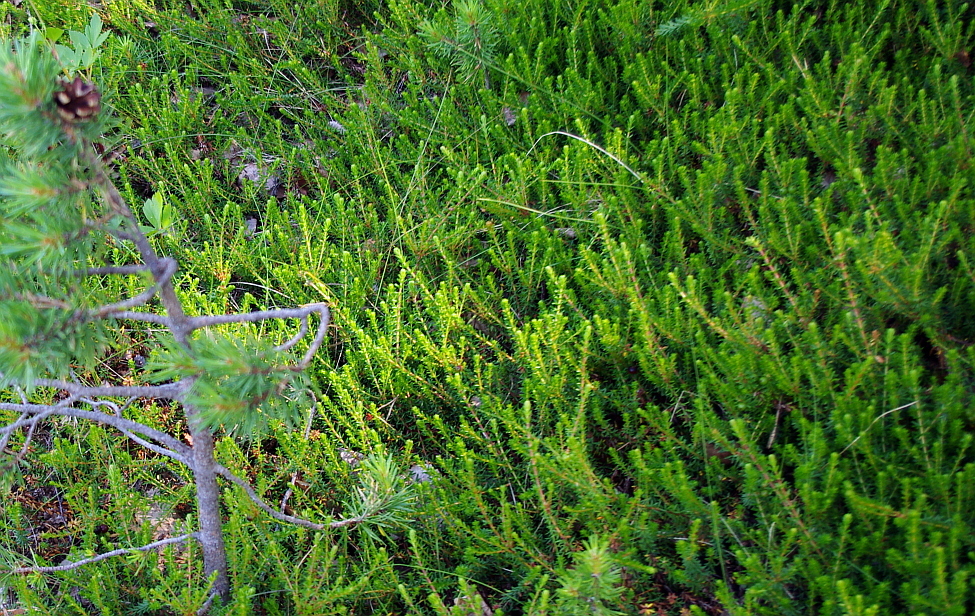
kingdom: Plantae
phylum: Tracheophyta
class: Magnoliopsida
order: Ericales
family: Ericaceae
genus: Empetrum
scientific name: Empetrum nigrum
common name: Black crowberry
